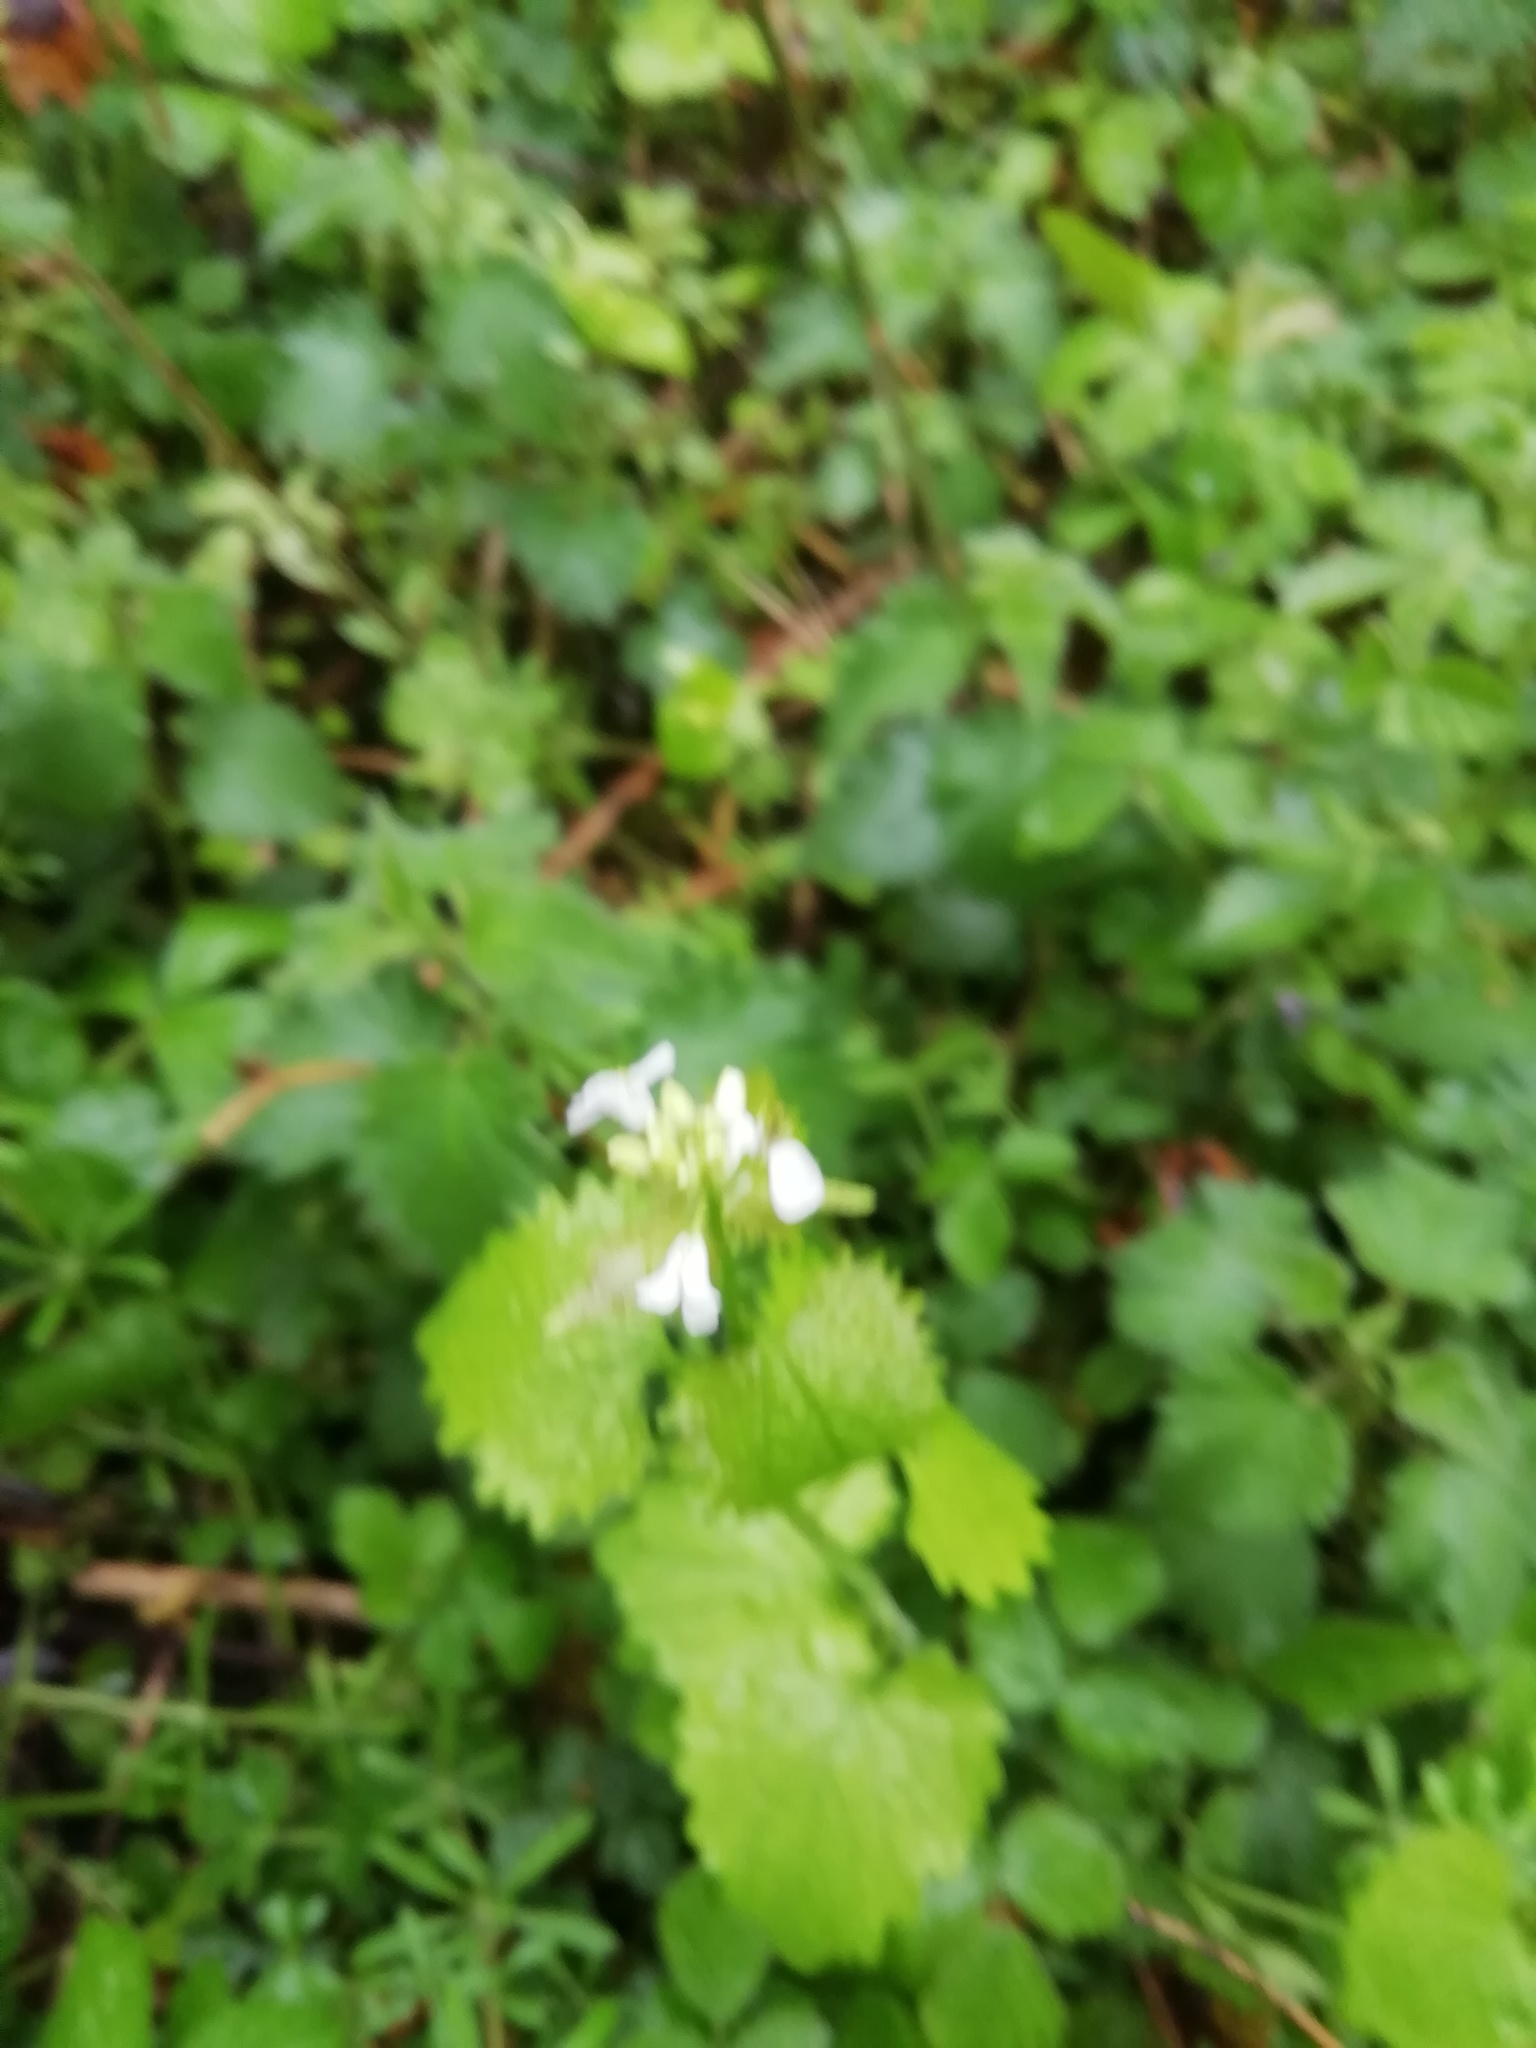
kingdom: Plantae
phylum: Tracheophyta
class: Magnoliopsida
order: Brassicales
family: Brassicaceae
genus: Alliaria
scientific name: Alliaria petiolata
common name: Garlic mustard
